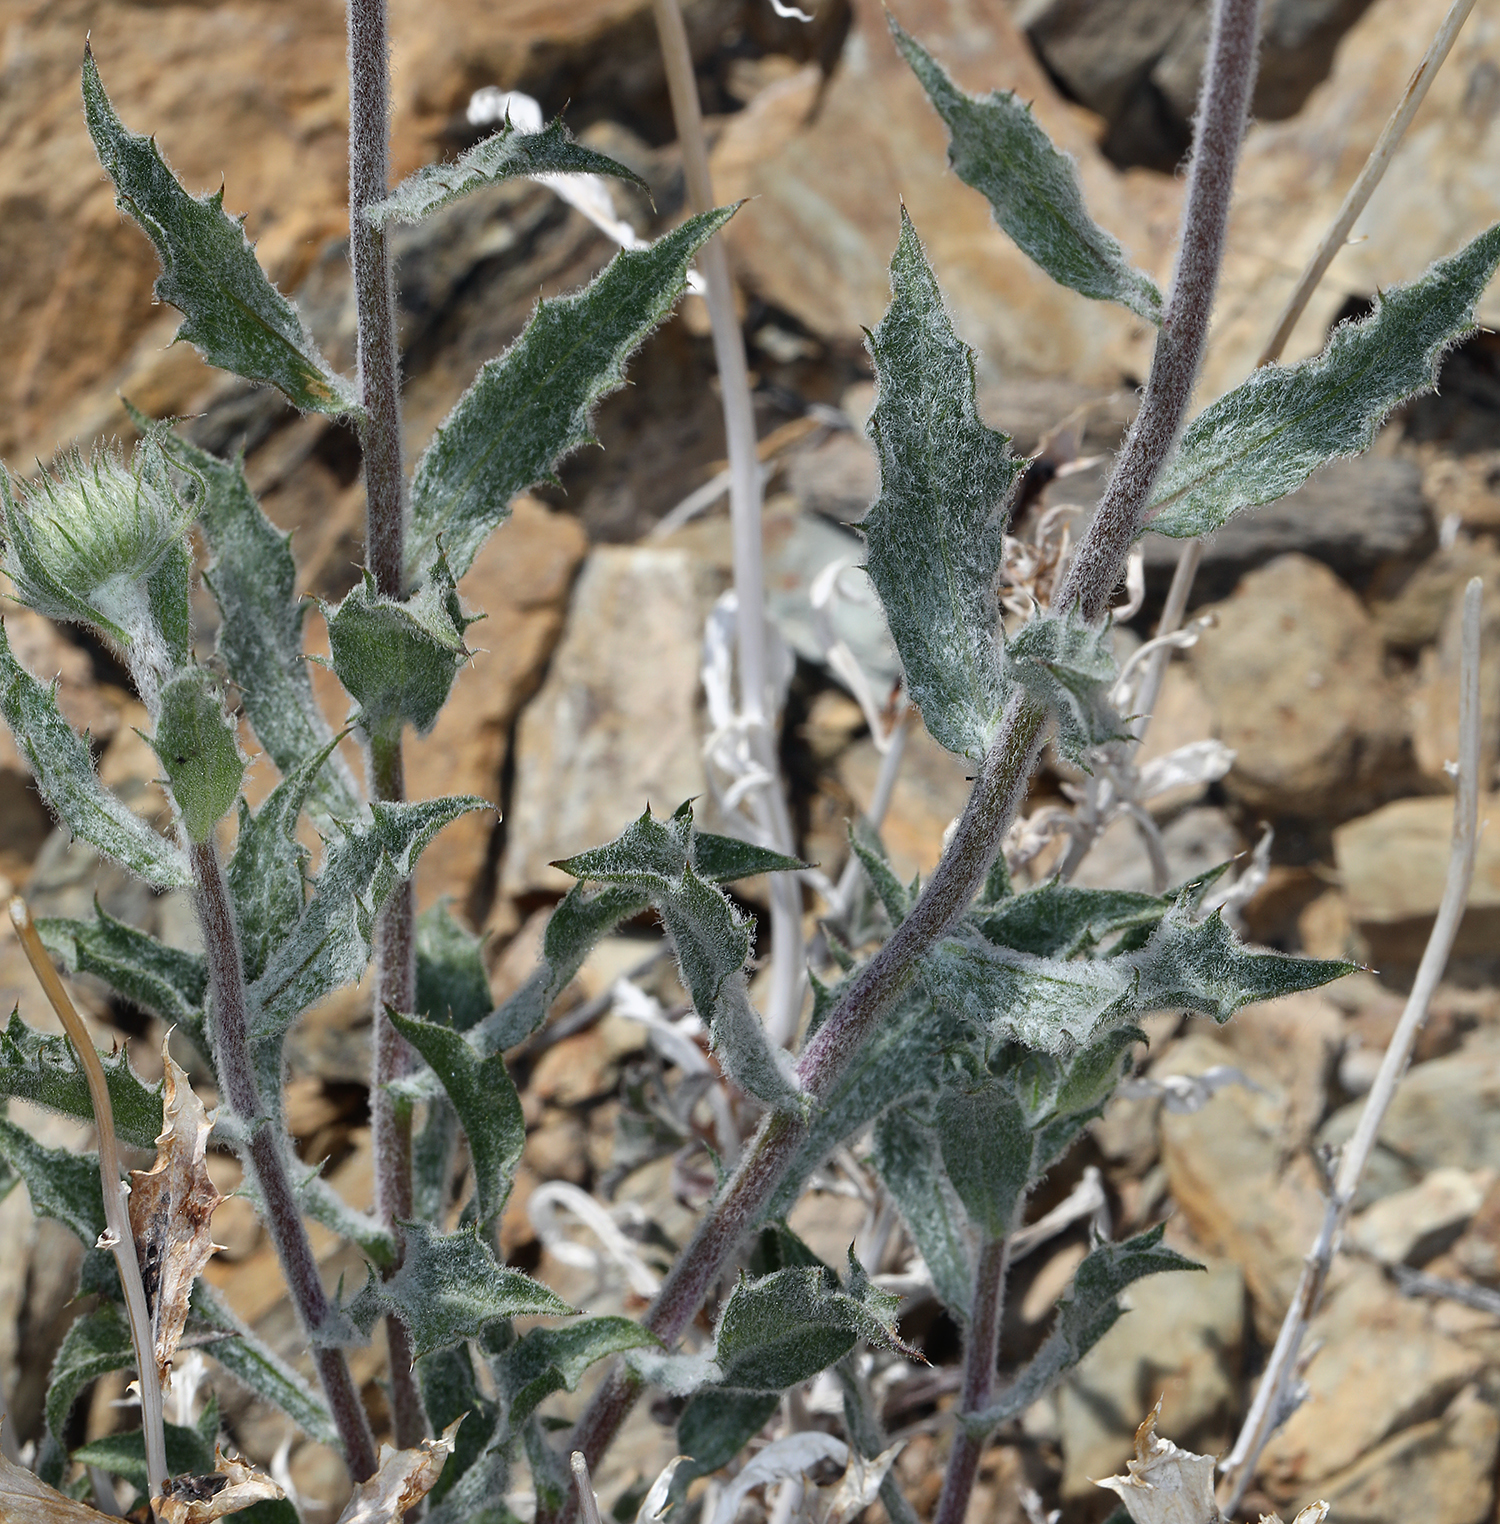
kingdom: Plantae
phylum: Tracheophyta
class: Magnoliopsida
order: Asterales
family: Asteraceae
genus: Xylorhiza
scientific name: Xylorhiza tortifolia
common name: Hurt-leaf woody-aster
